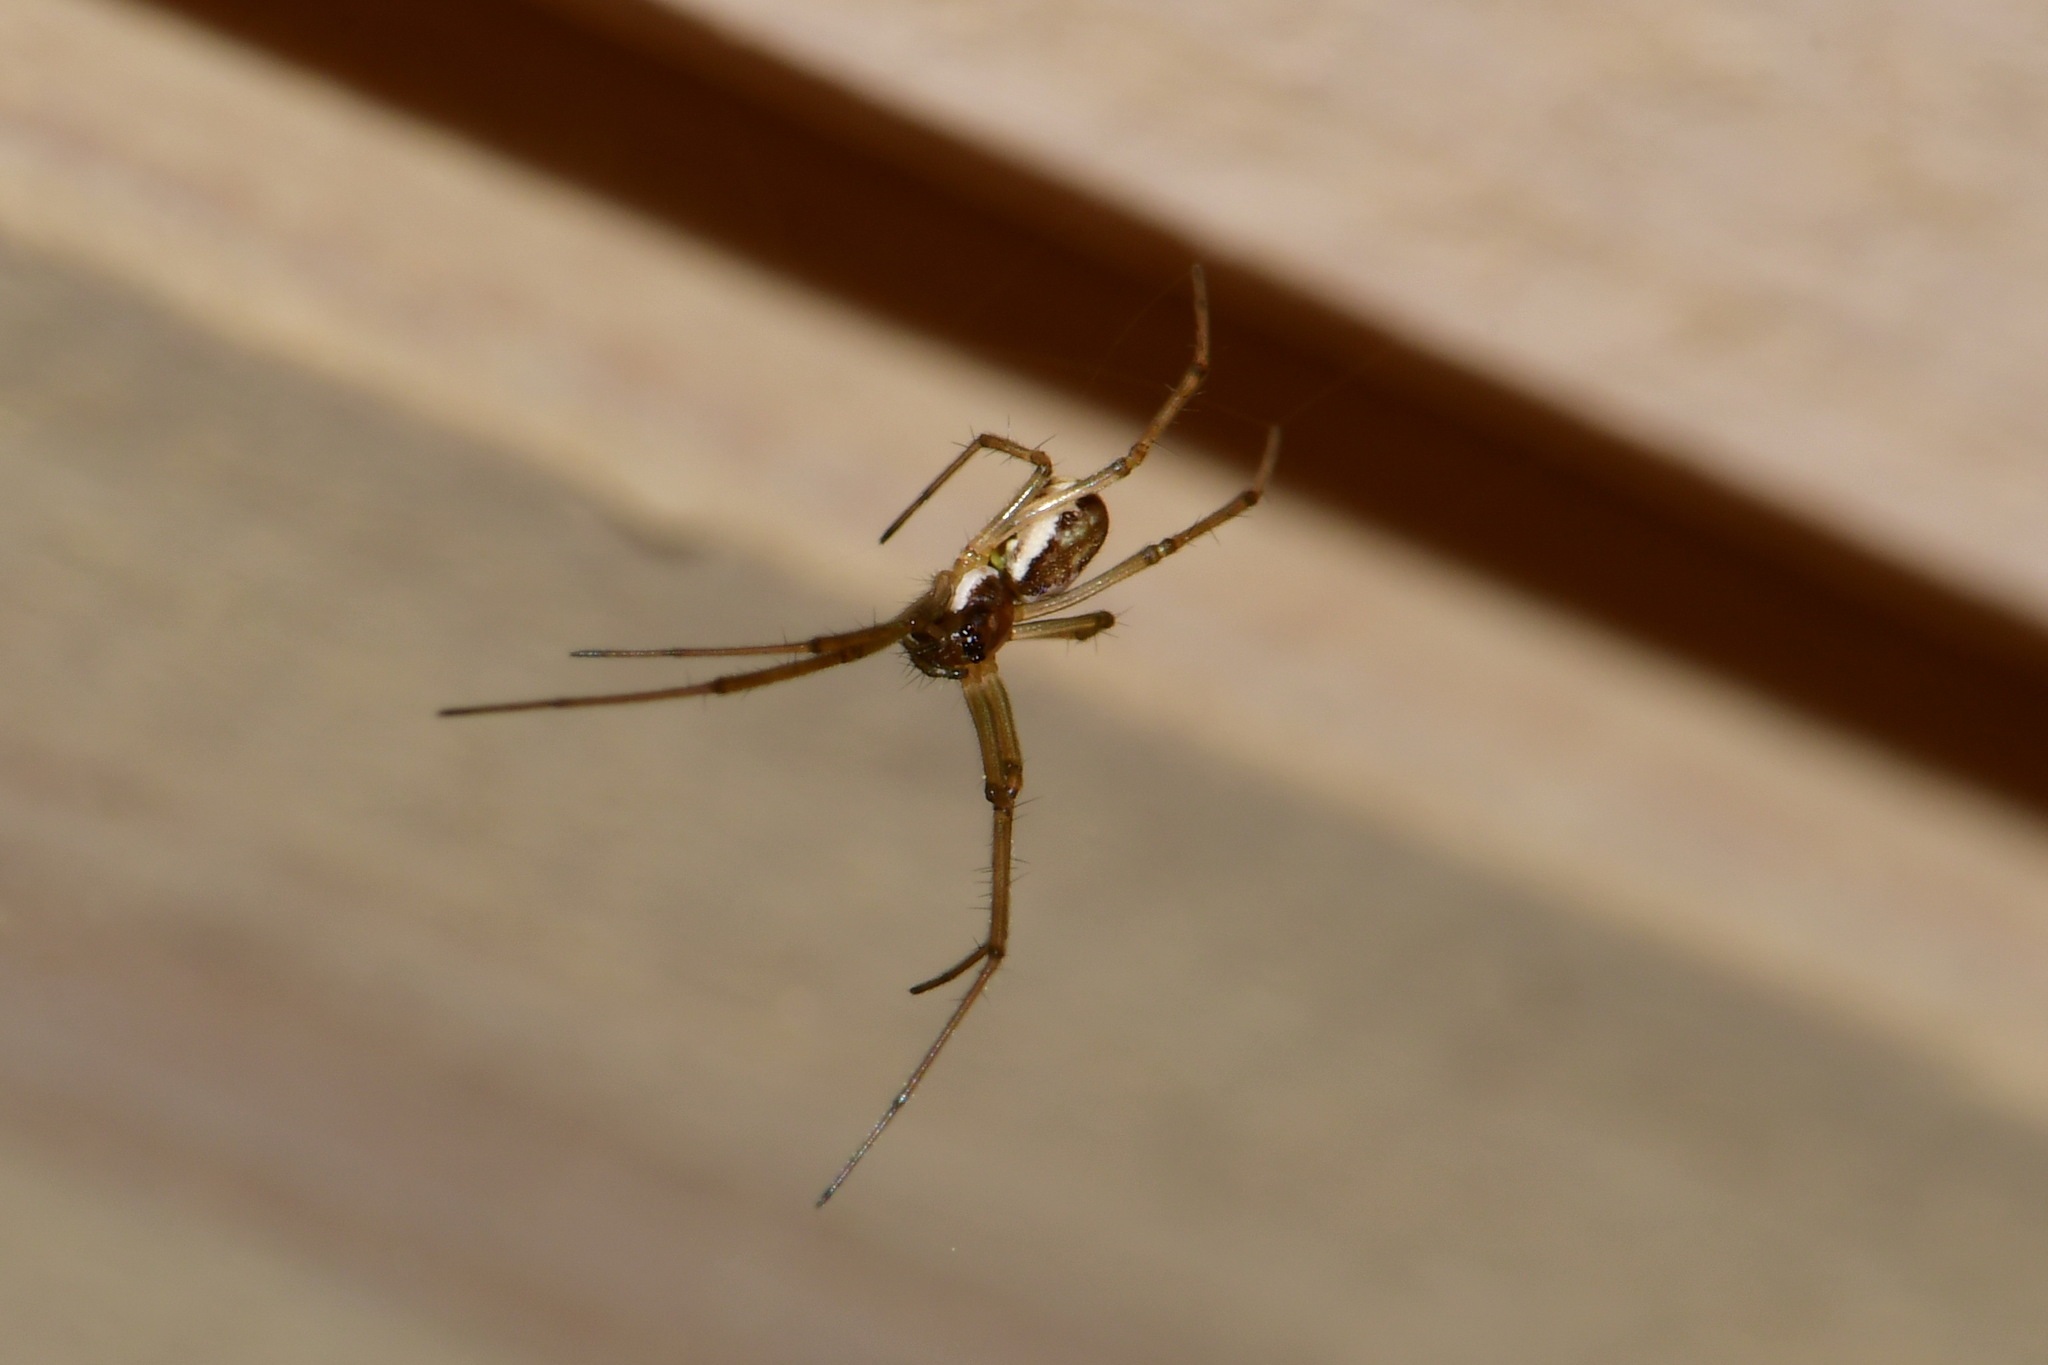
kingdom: Animalia
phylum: Arthropoda
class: Arachnida
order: Araneae
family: Linyphiidae
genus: Neriene
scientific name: Neriene radiata
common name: Filmy dome spider
